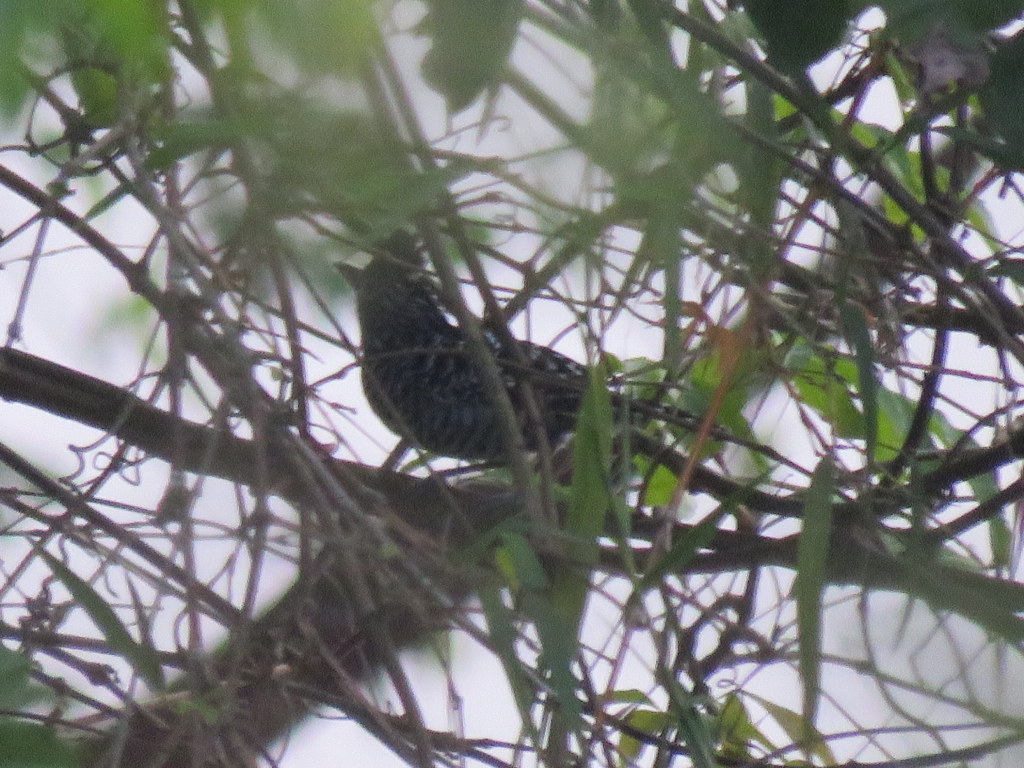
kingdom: Animalia
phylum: Chordata
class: Aves
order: Passeriformes
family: Thamnophilidae
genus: Thamnophilus
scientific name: Thamnophilus doliatus
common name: Barred antshrike
